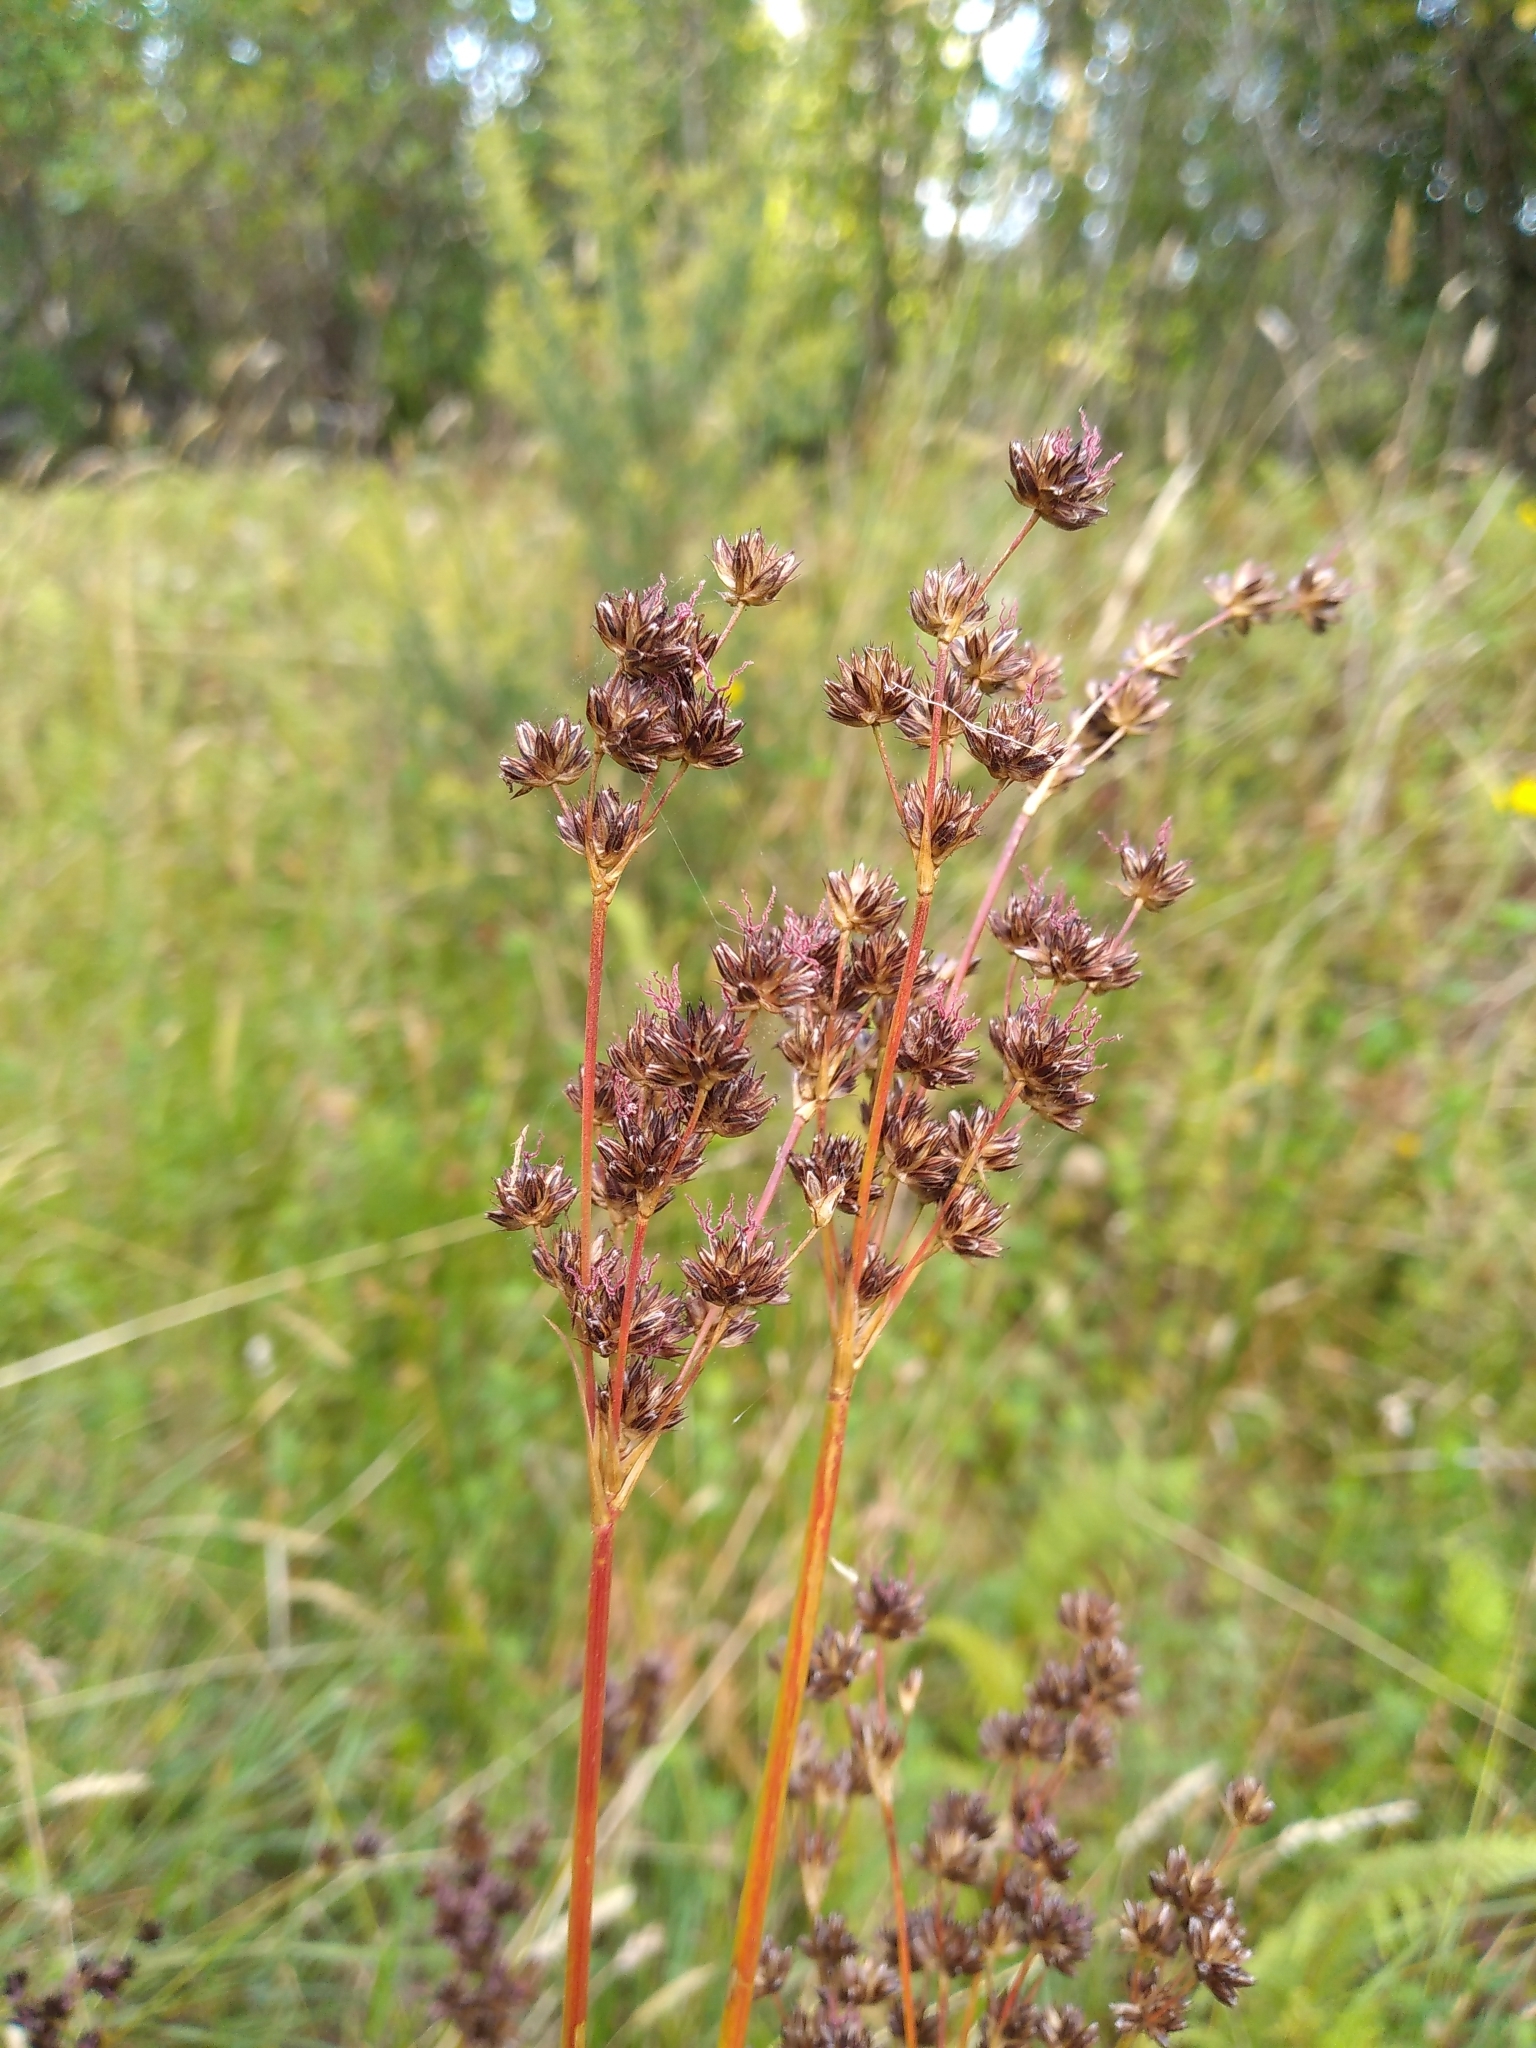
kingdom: Plantae
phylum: Tracheophyta
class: Liliopsida
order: Poales
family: Juncaceae
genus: Juncus
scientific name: Juncus lomatophyllus
